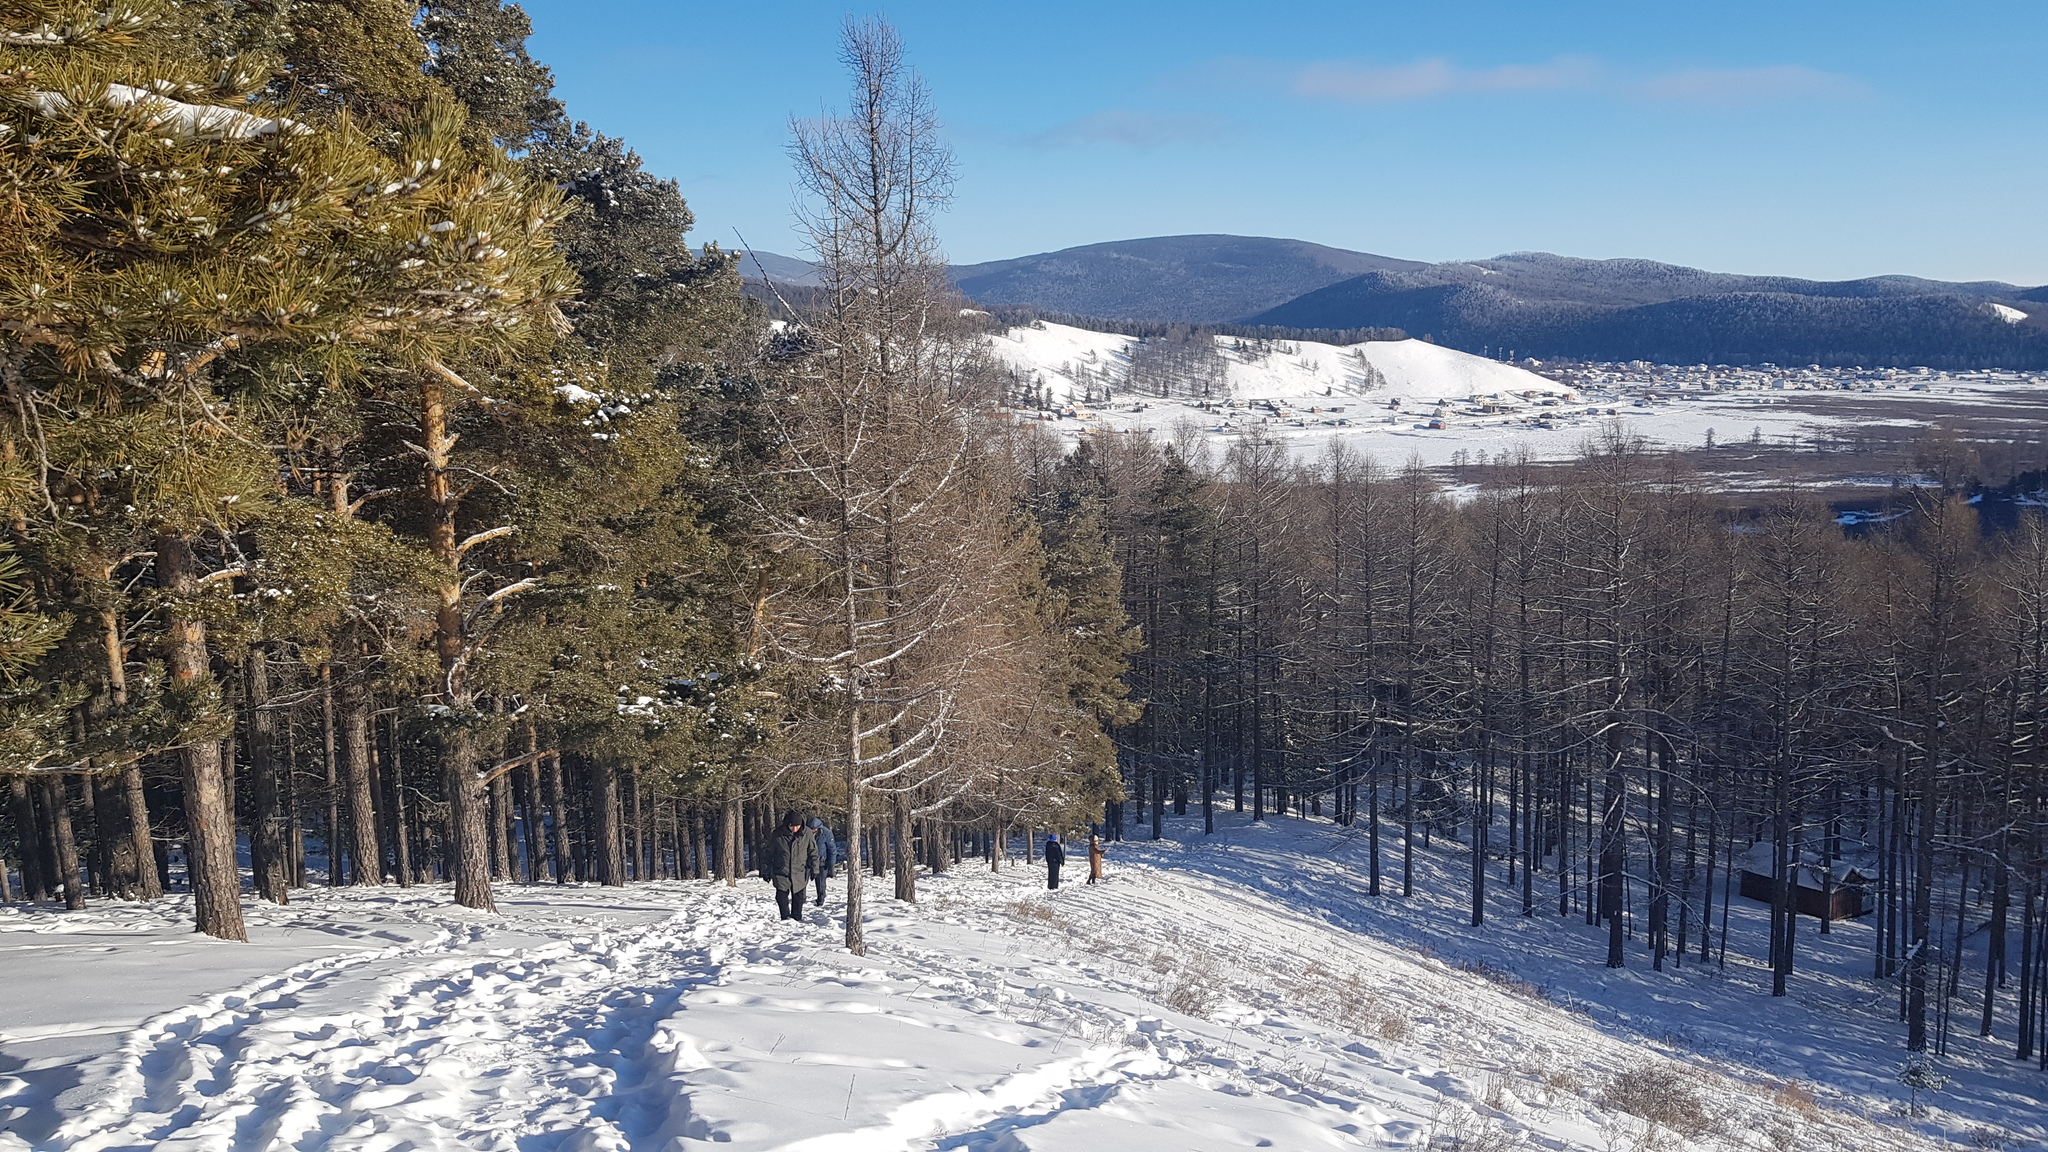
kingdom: Plantae
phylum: Tracheophyta
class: Pinopsida
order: Pinales
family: Pinaceae
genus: Larix
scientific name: Larix sibirica
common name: Siberian larch
